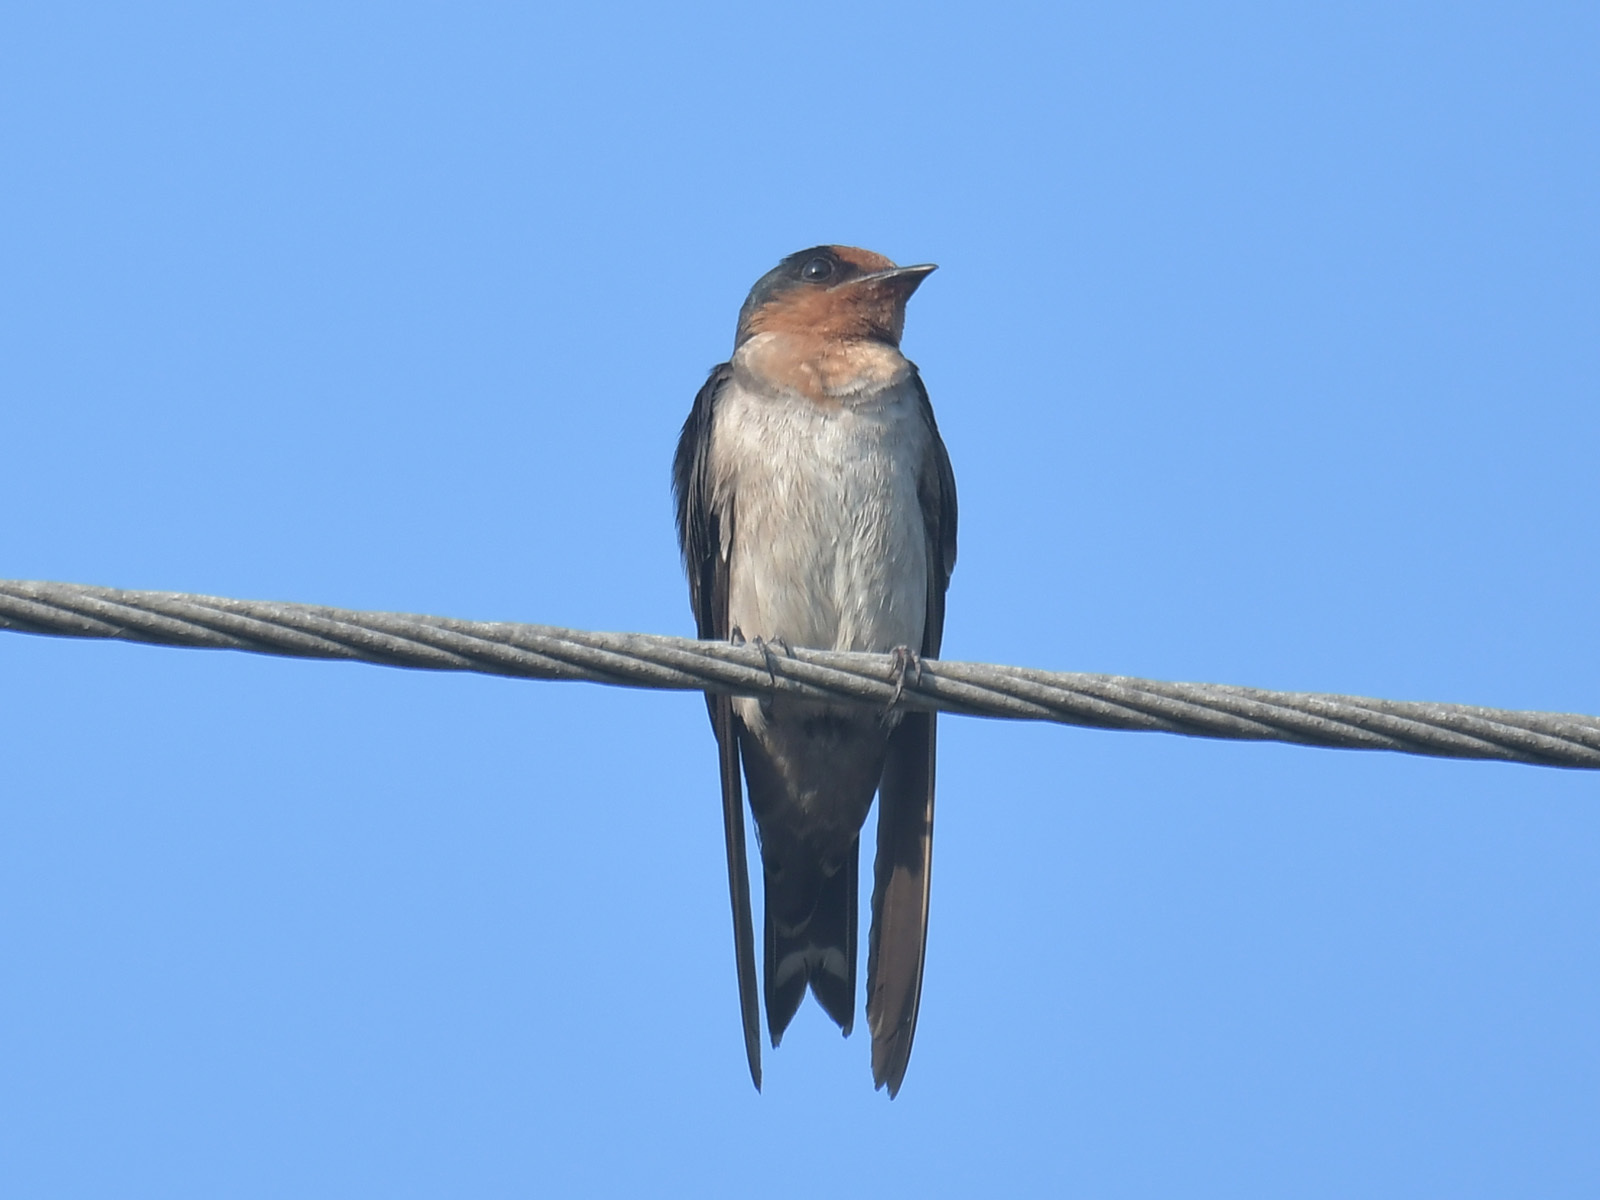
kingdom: Animalia
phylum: Chordata
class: Aves
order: Passeriformes
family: Hirundinidae
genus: Hirundo
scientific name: Hirundo tahitica
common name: Pacific swallow
